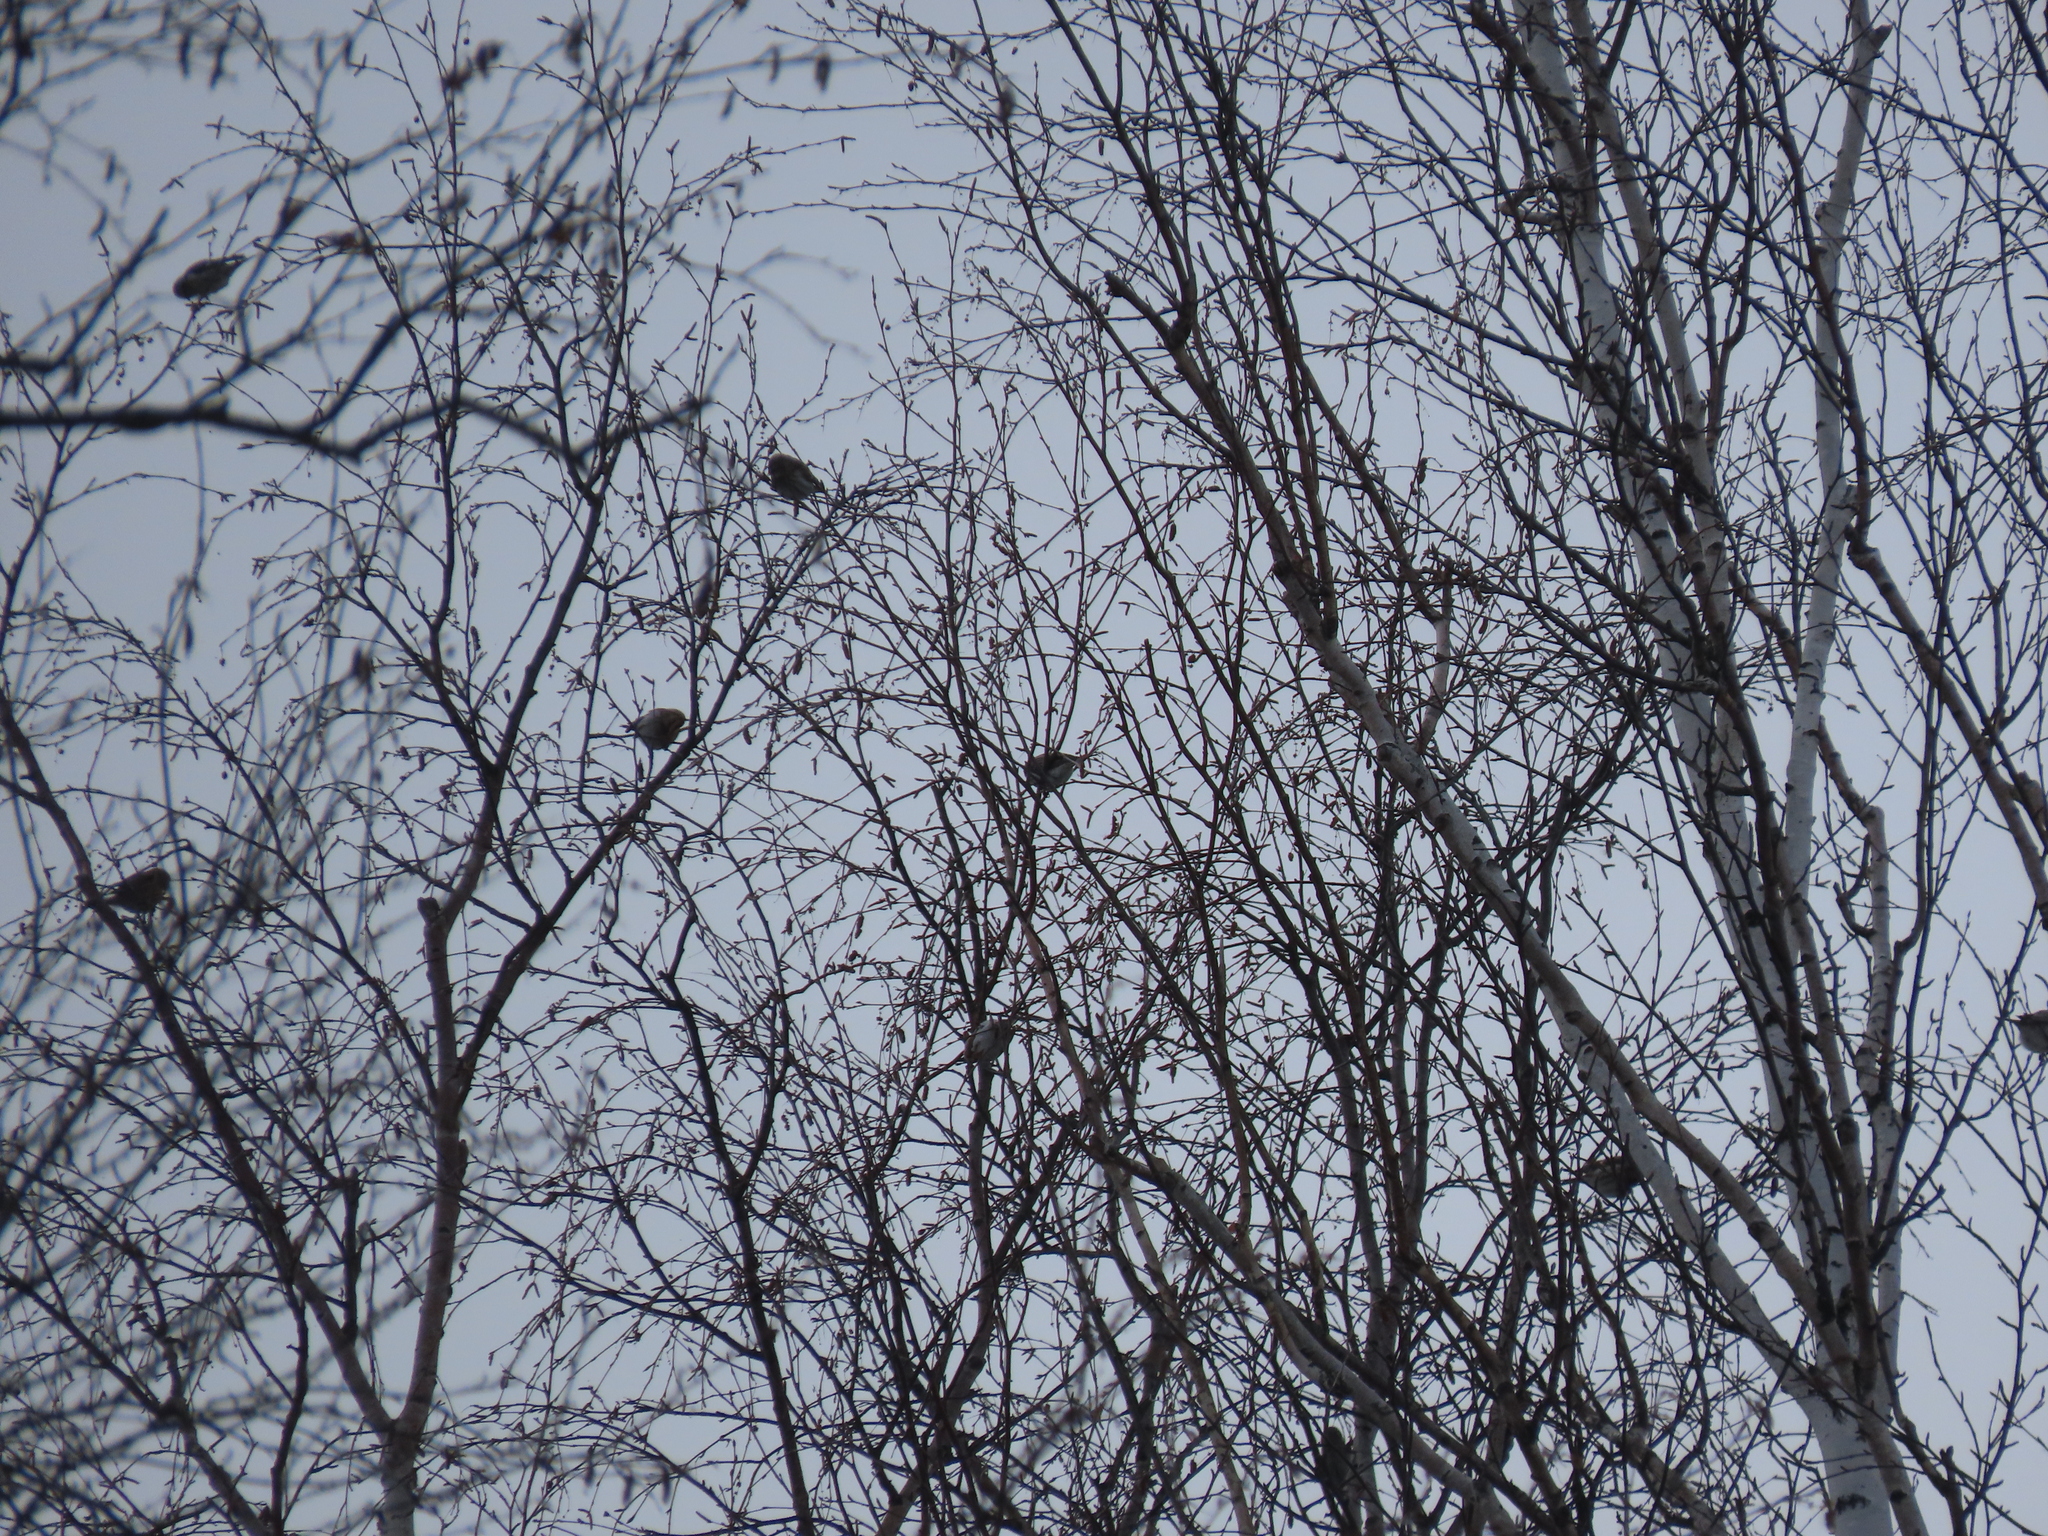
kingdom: Animalia
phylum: Chordata
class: Aves
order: Passeriformes
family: Fringillidae
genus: Acanthis
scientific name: Acanthis flammea
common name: Common redpoll
